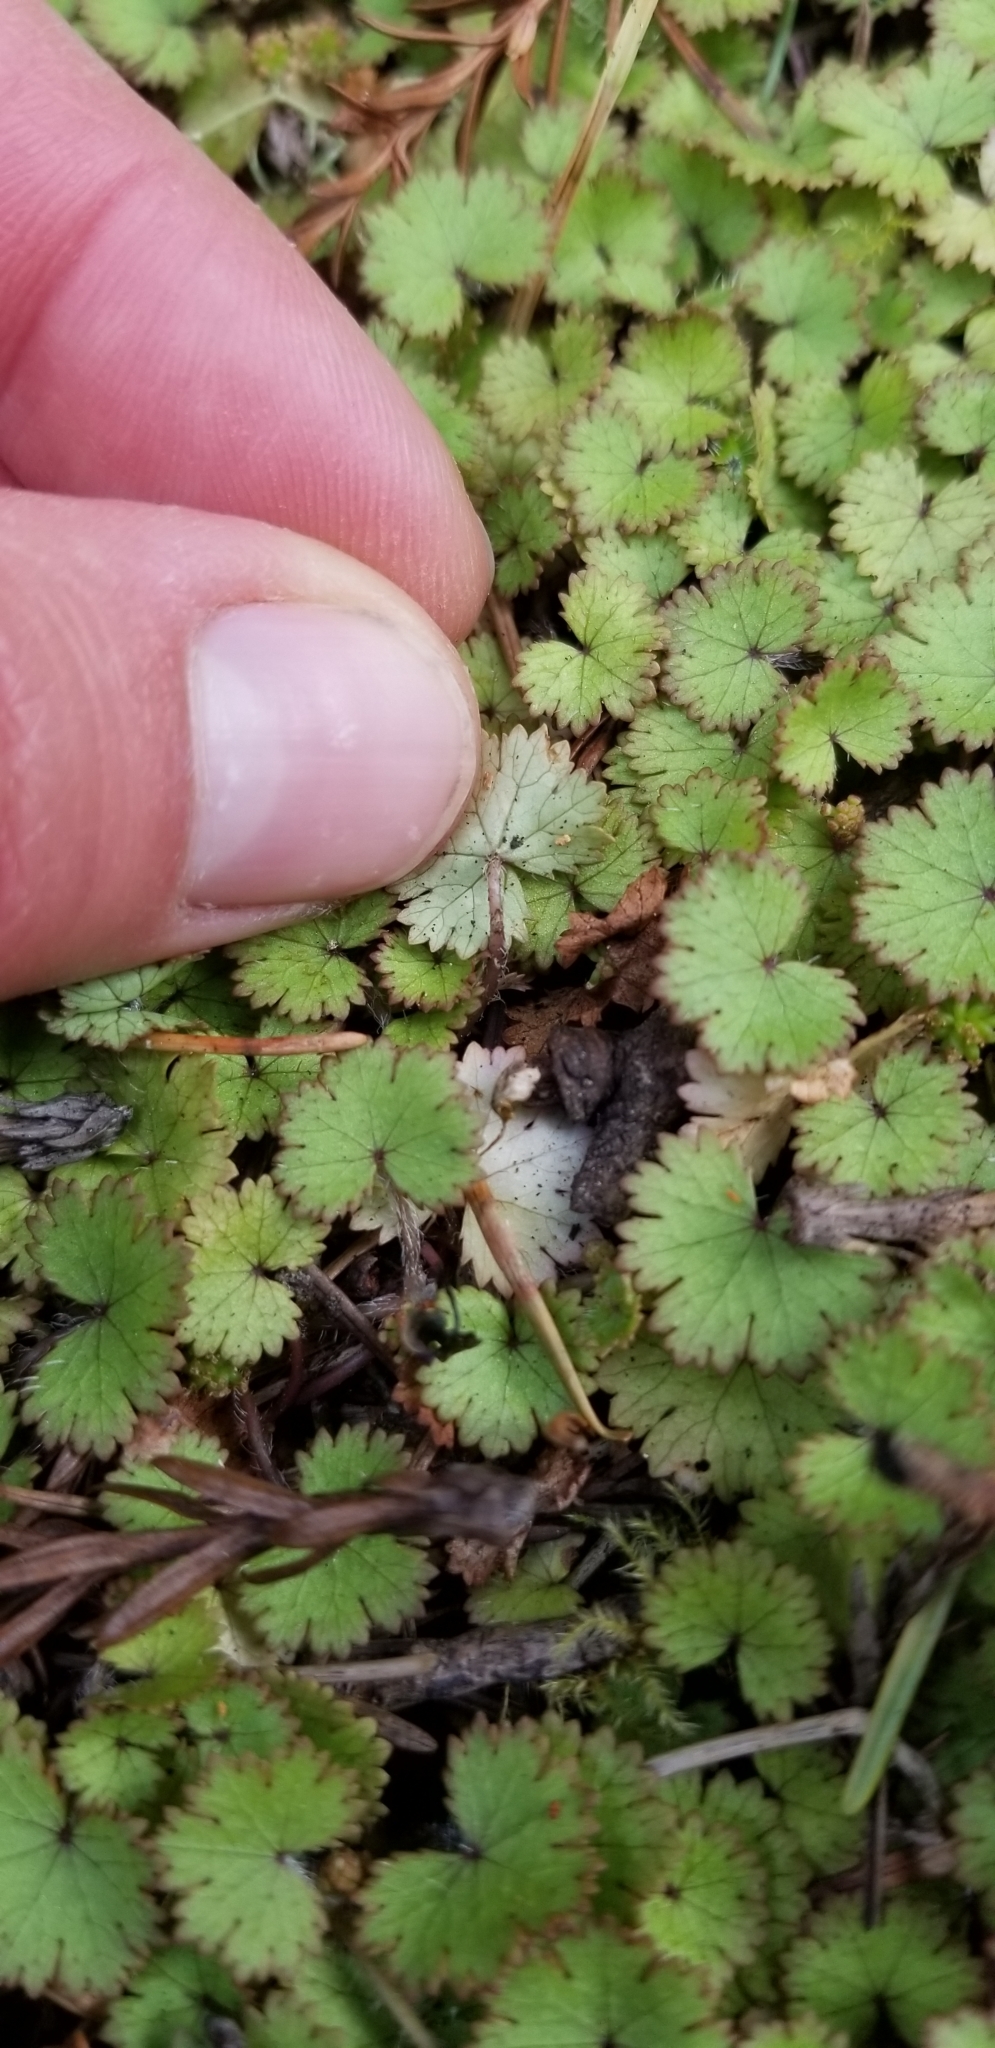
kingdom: Plantae
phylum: Tracheophyta
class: Magnoliopsida
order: Apiales
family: Araliaceae
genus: Hydrocotyle
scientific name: Hydrocotyle moschata
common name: Hairy pennywort
